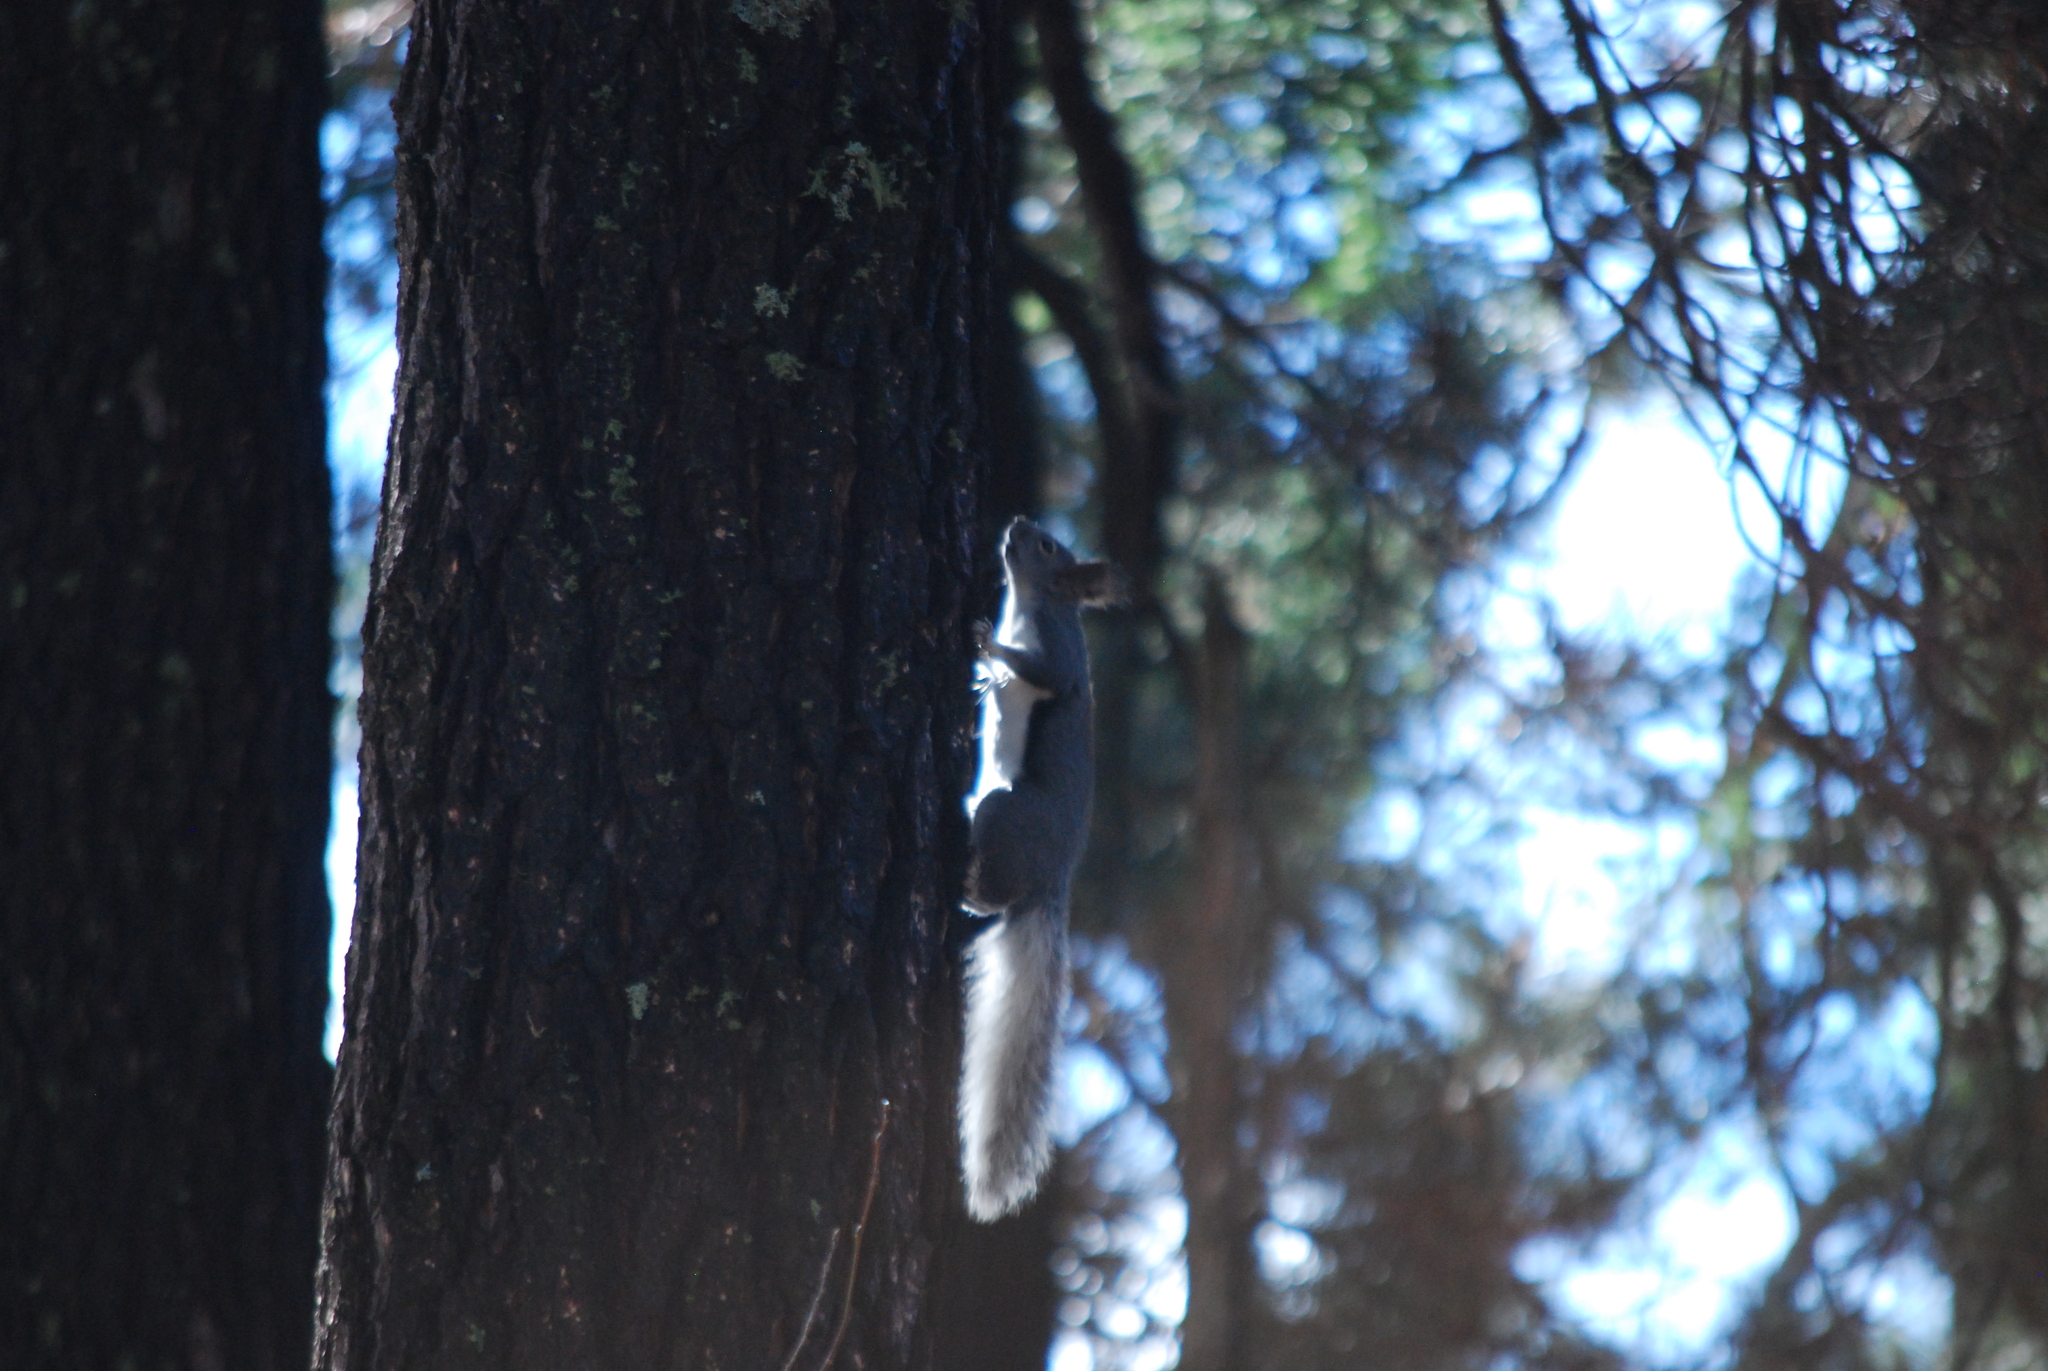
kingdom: Animalia
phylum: Chordata
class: Mammalia
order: Rodentia
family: Sciuridae
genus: Sciurus
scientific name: Sciurus aberti
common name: Abert's squirrel
